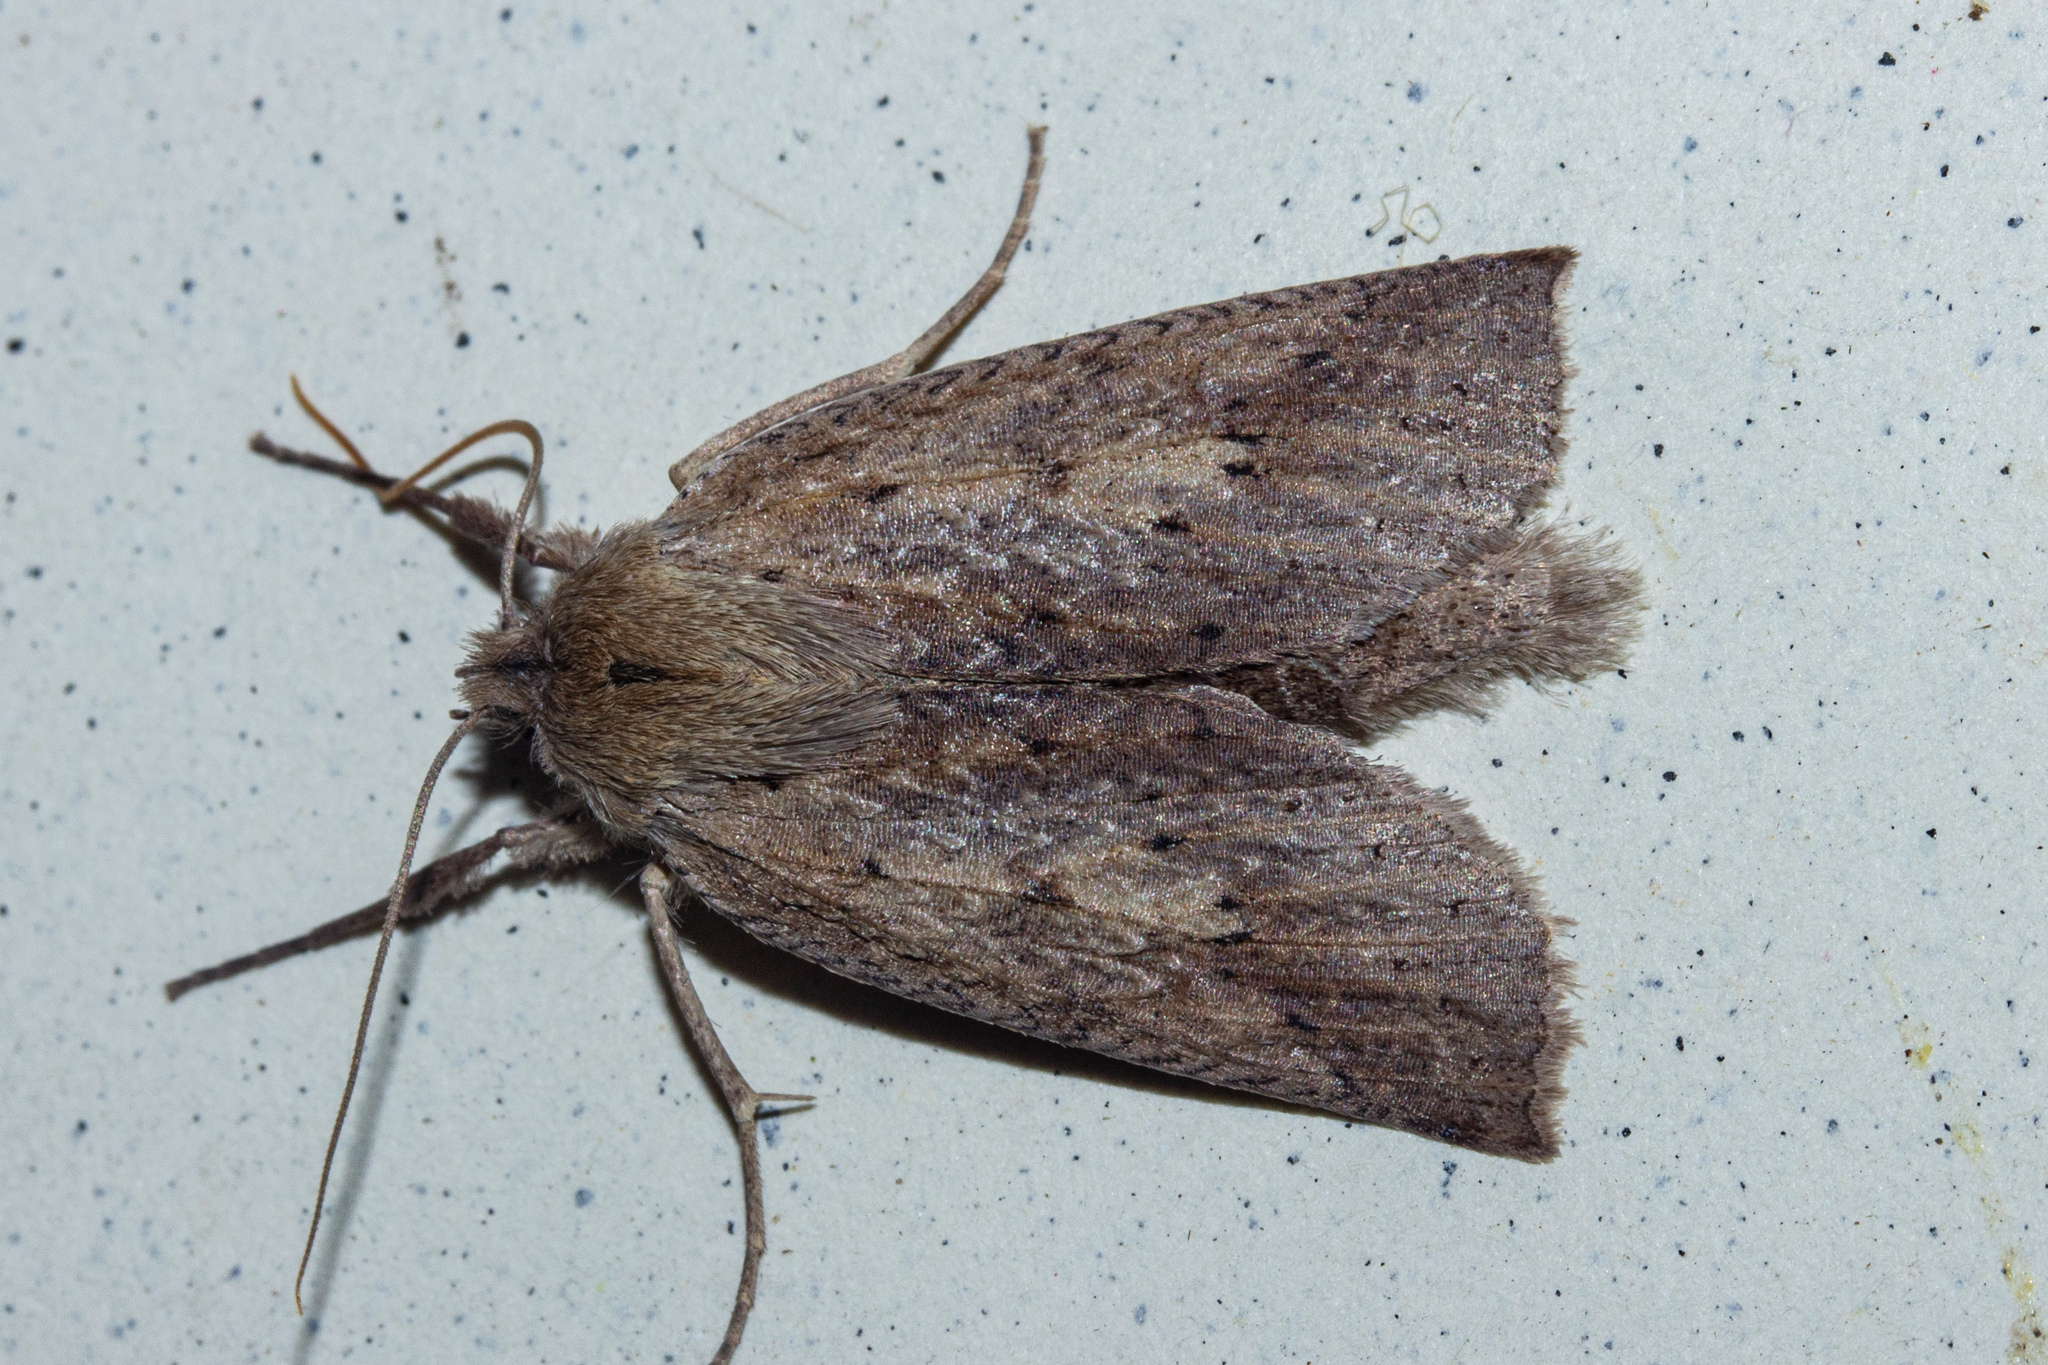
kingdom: Animalia
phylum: Arthropoda
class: Insecta
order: Lepidoptera
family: Geometridae
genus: Declana
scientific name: Declana leptomera
